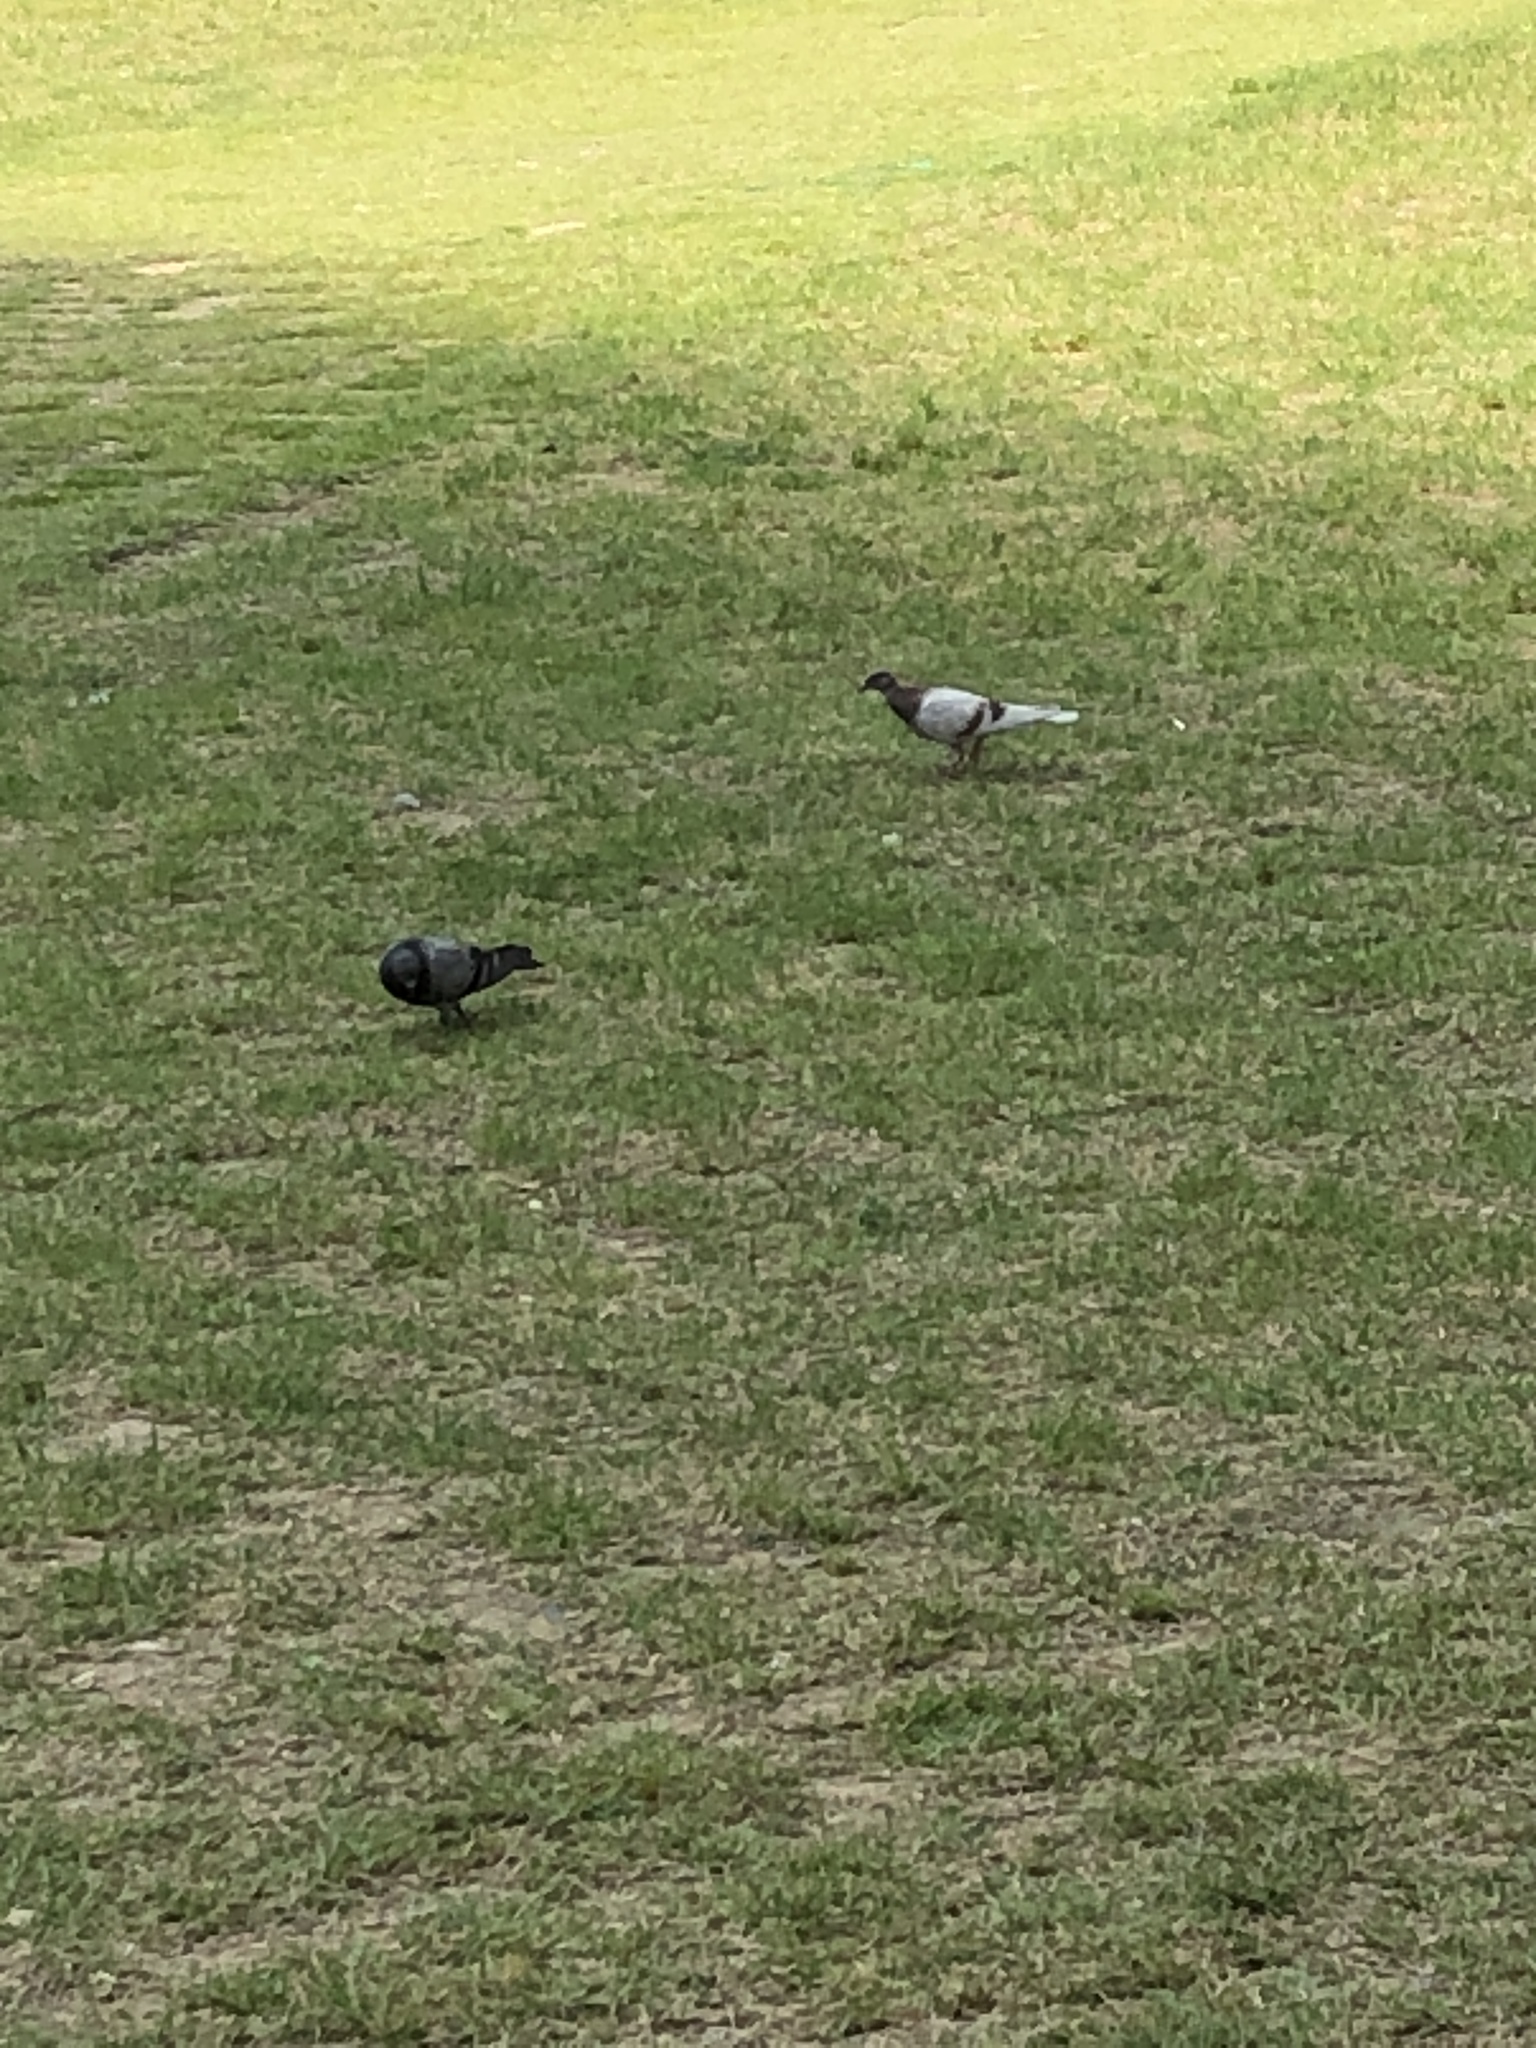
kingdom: Animalia
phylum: Chordata
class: Aves
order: Columbiformes
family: Columbidae
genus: Columba
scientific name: Columba livia
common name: Rock pigeon
